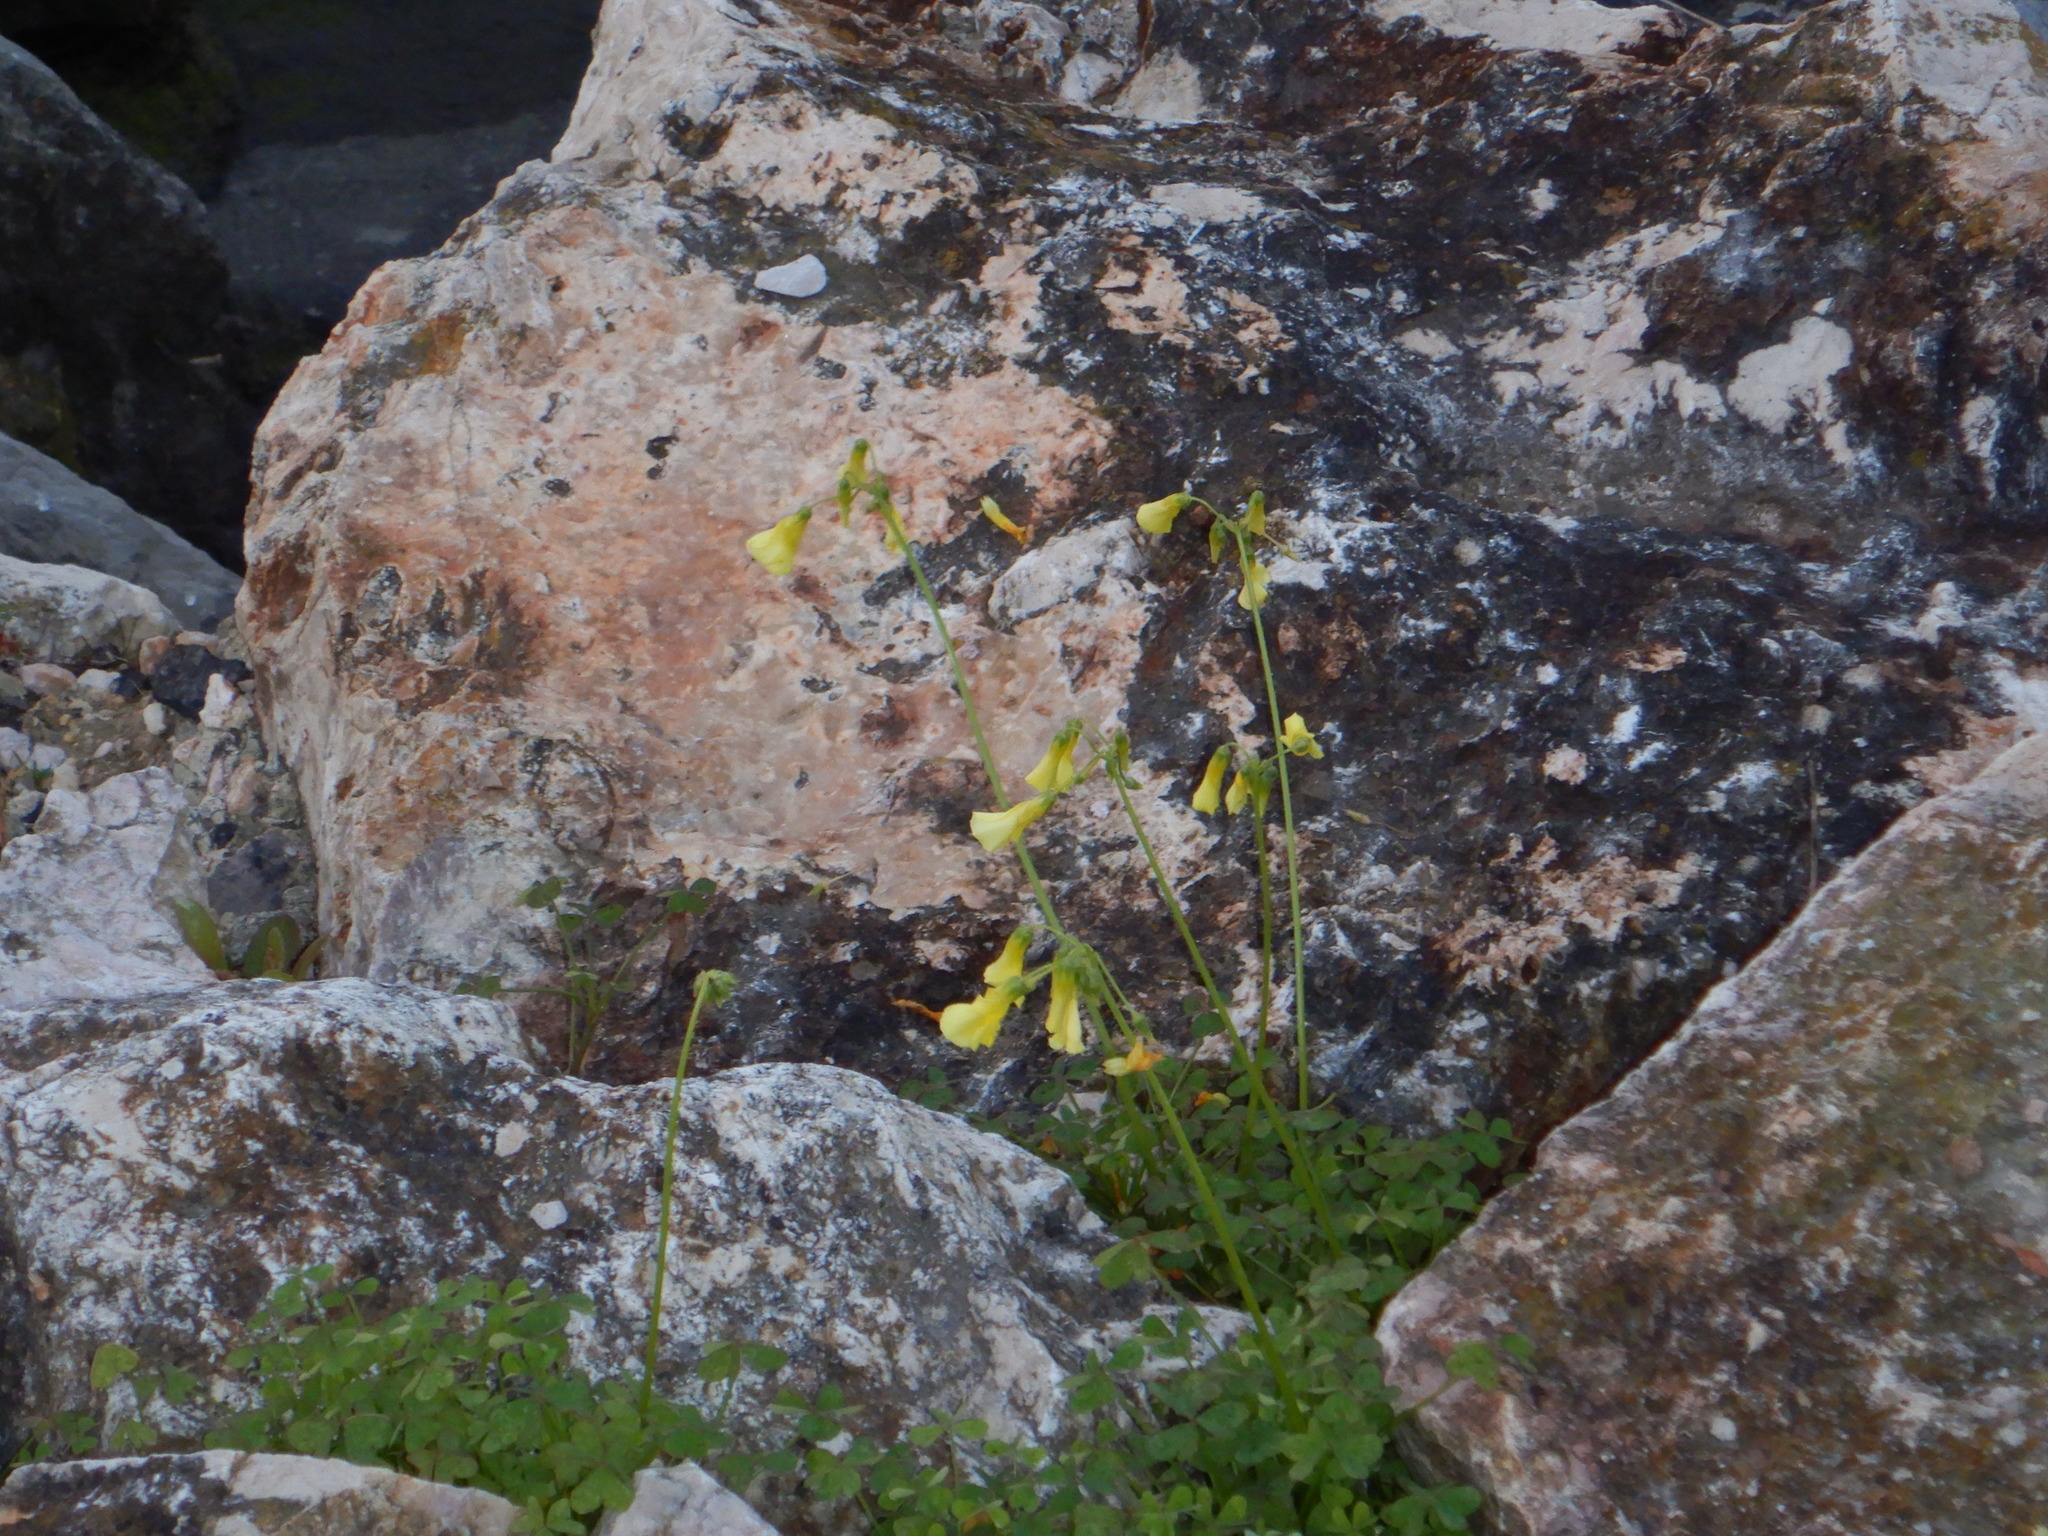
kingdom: Plantae
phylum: Tracheophyta
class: Magnoliopsida
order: Oxalidales
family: Oxalidaceae
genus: Oxalis
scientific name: Oxalis pes-caprae
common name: Bermuda-buttercup
